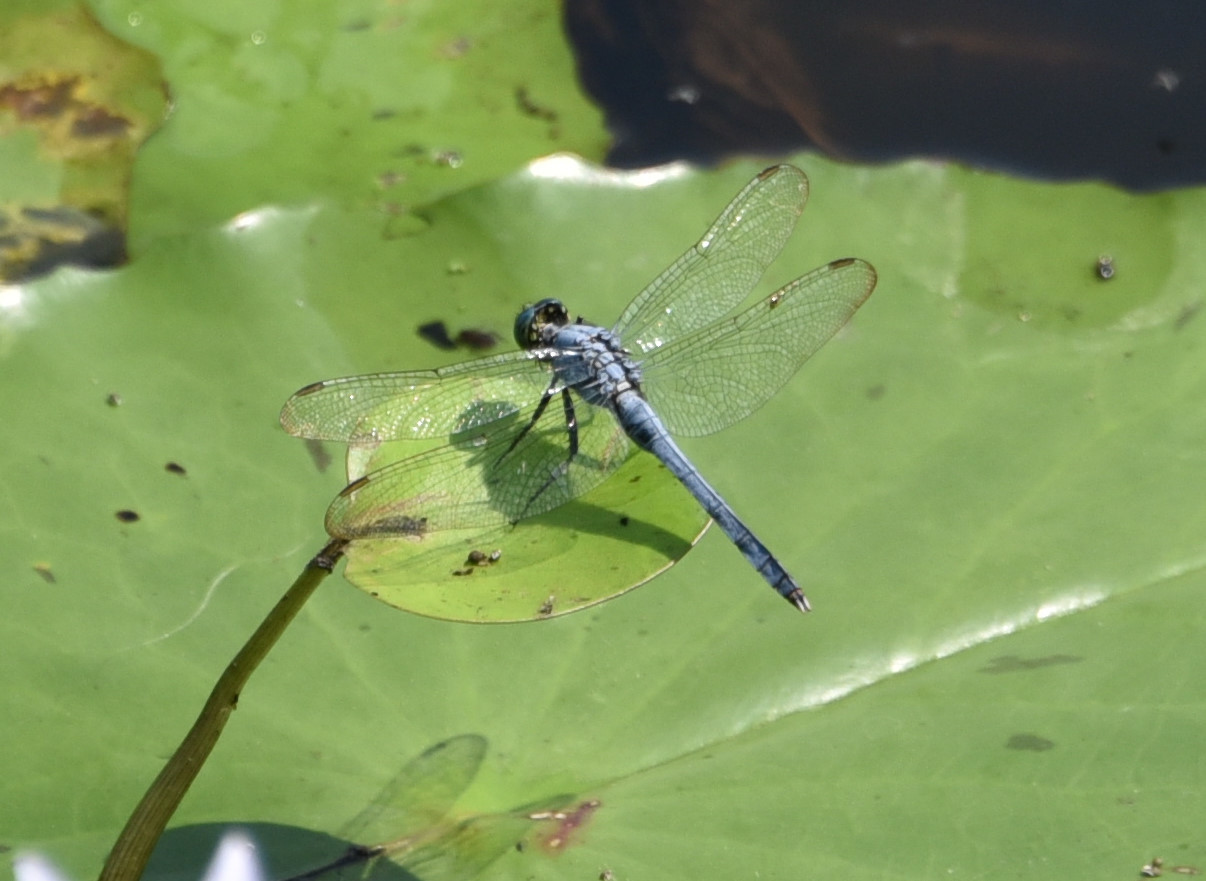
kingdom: Animalia
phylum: Arthropoda
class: Insecta
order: Odonata
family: Libellulidae
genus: Erythemis
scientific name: Erythemis simplicicollis
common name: Eastern pondhawk
